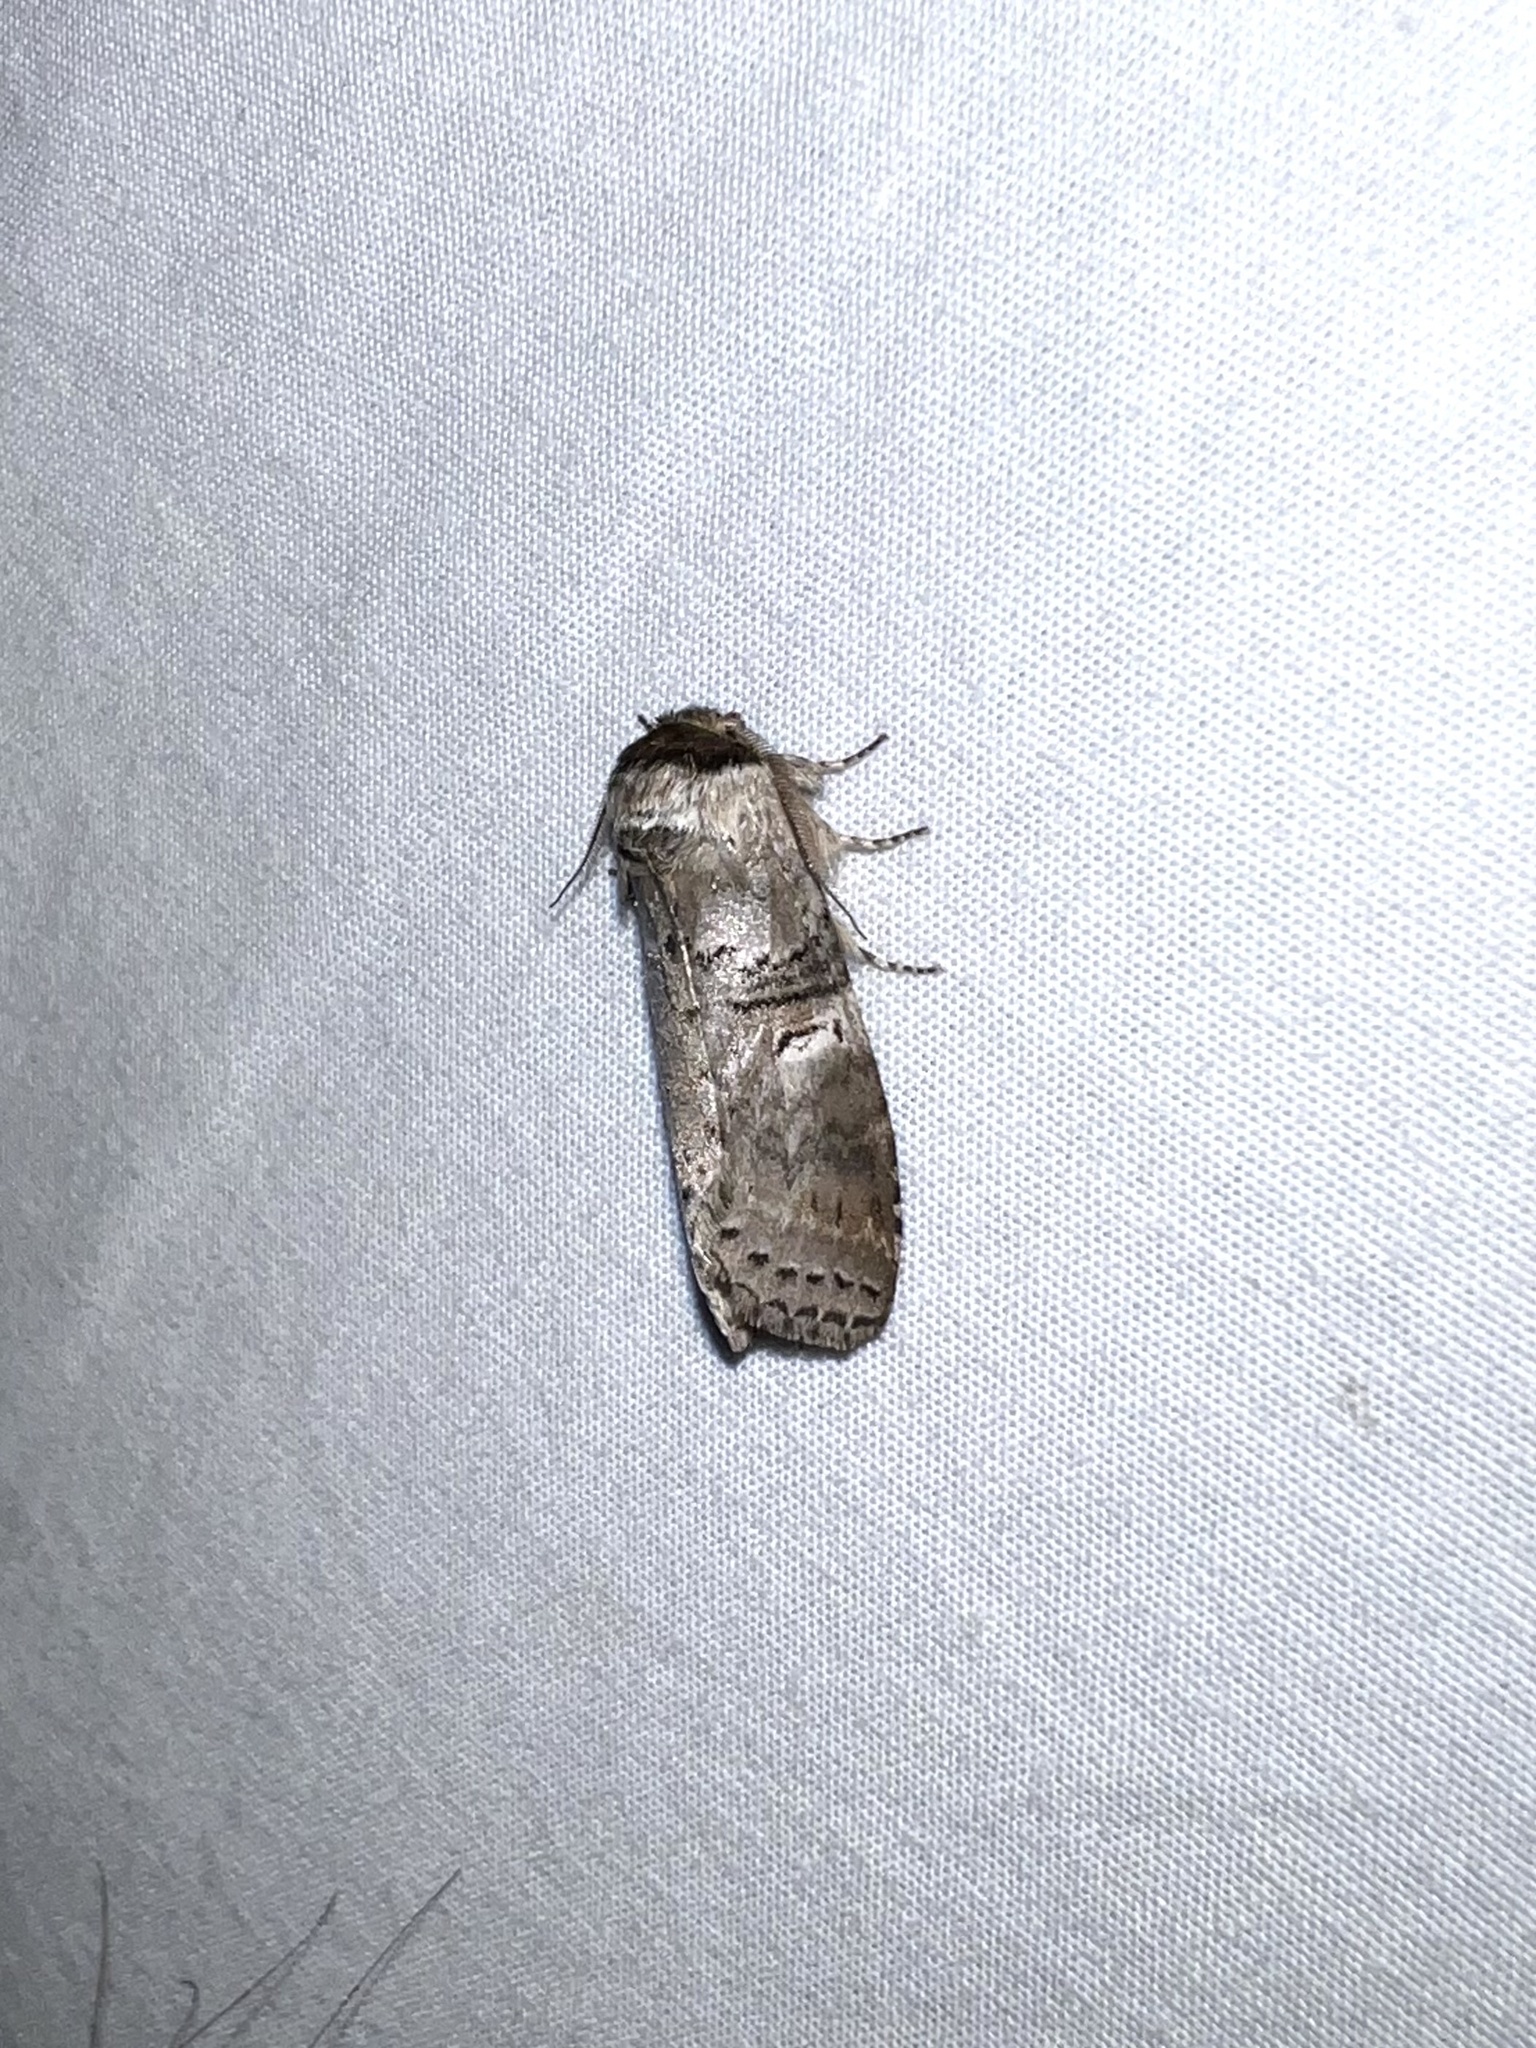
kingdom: Animalia
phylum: Arthropoda
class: Insecta
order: Lepidoptera
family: Notodontidae
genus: Ellida
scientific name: Ellida caniplaga
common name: Linden prominent
